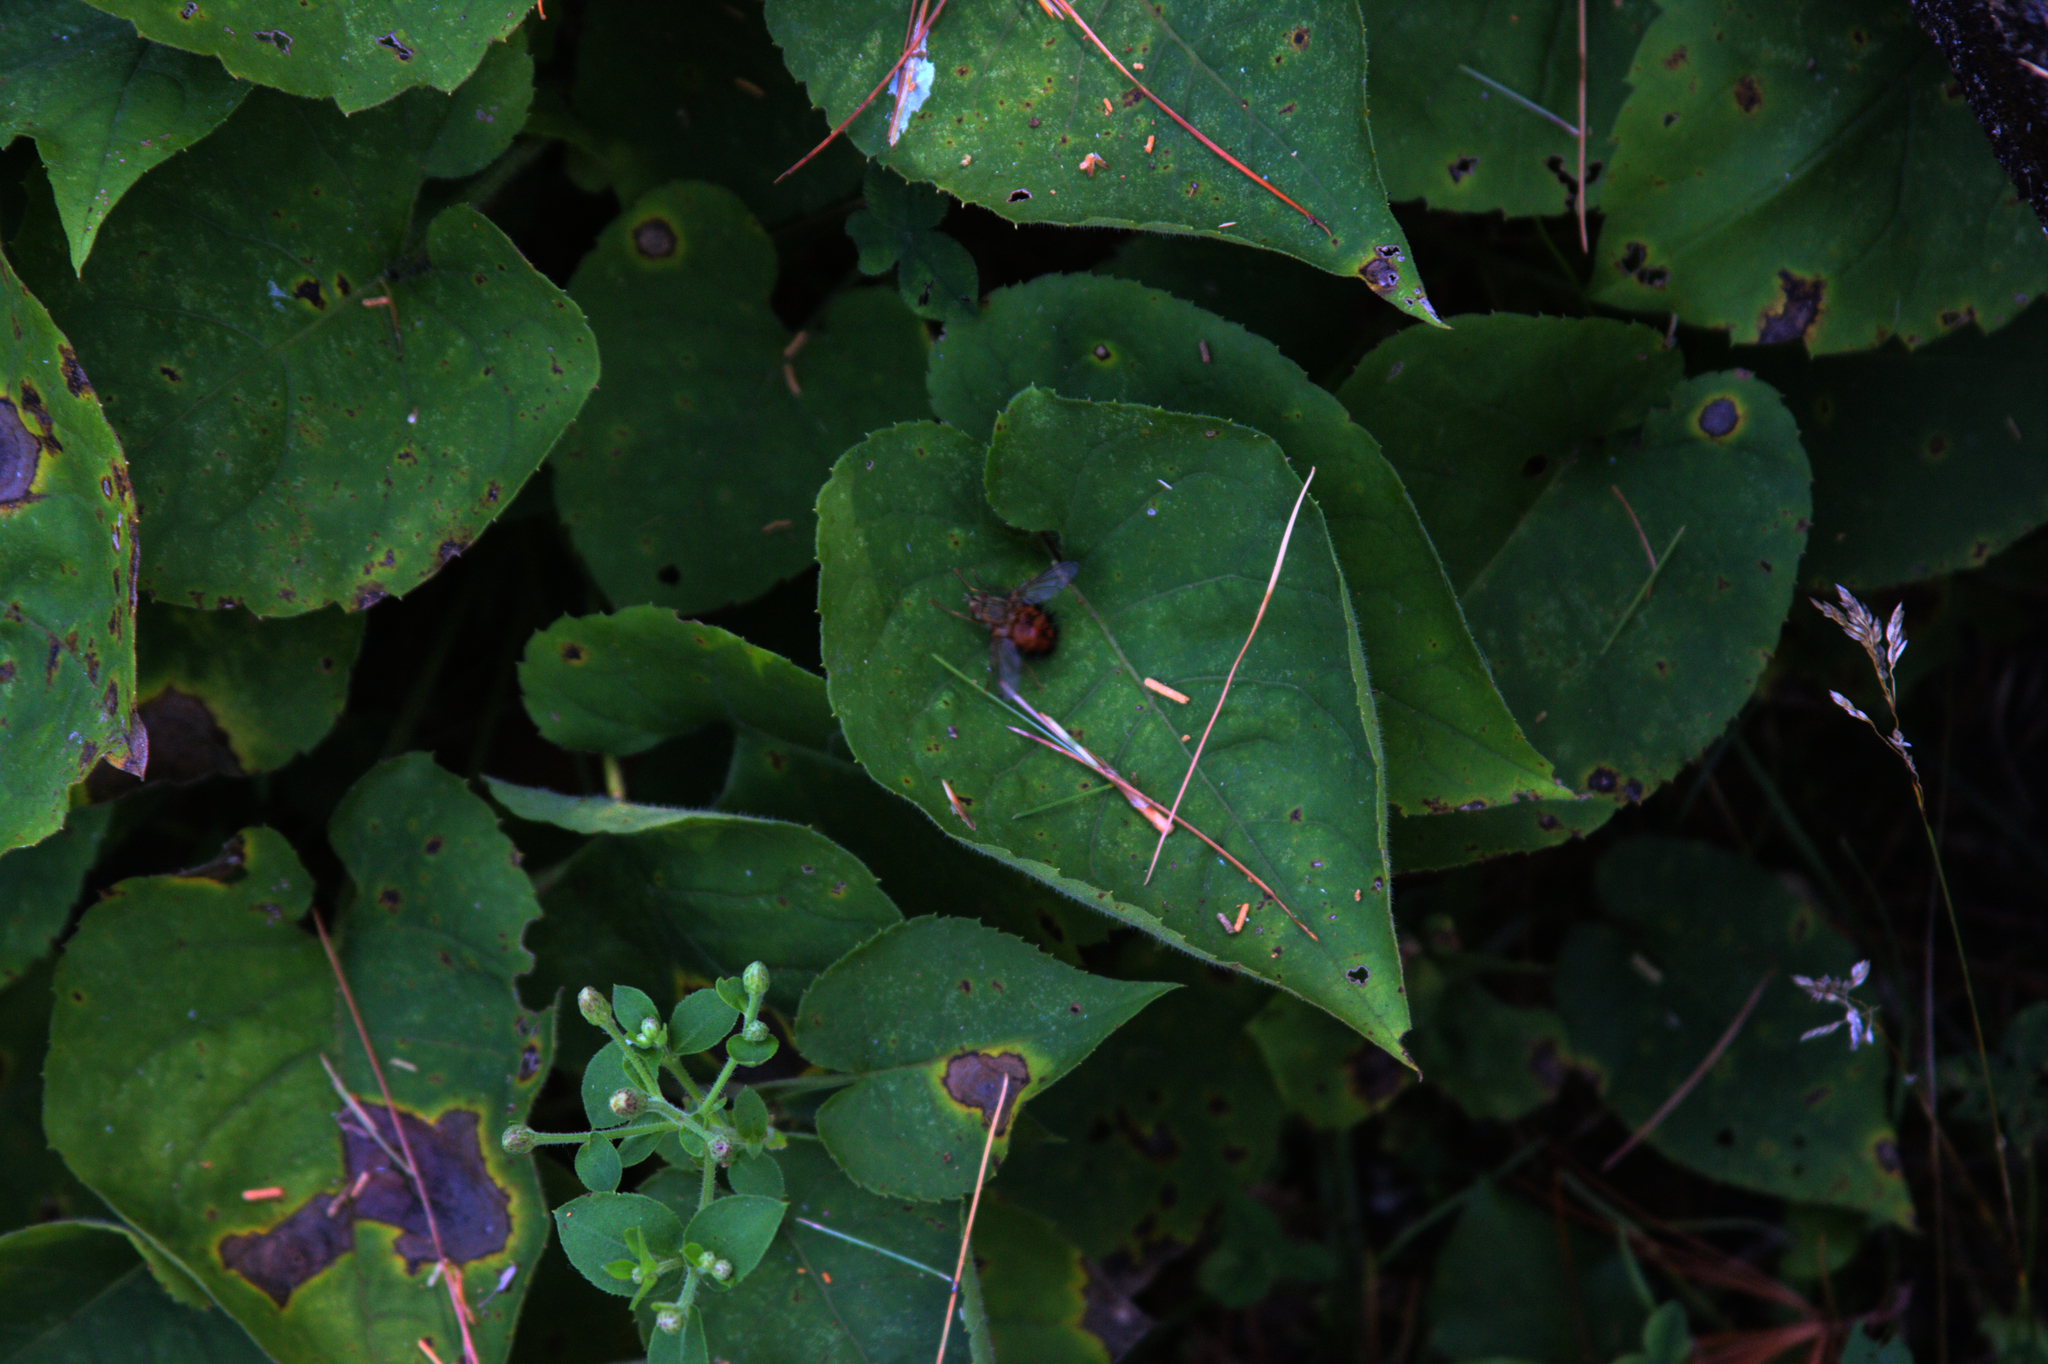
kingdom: Animalia
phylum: Arthropoda
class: Insecta
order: Diptera
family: Tachinidae
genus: Hystricia
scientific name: Hystricia abrupta
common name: Tomato bristle fly
